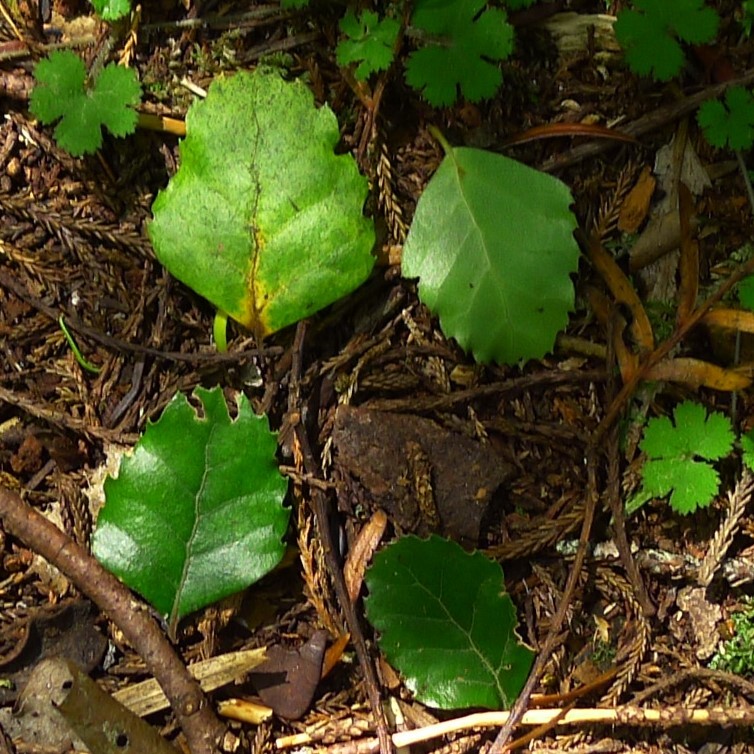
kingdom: Plantae
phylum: Tracheophyta
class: Magnoliopsida
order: Fagales
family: Nothofagaceae
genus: Nothofagus
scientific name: Nothofagus fusca
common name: Red beech
